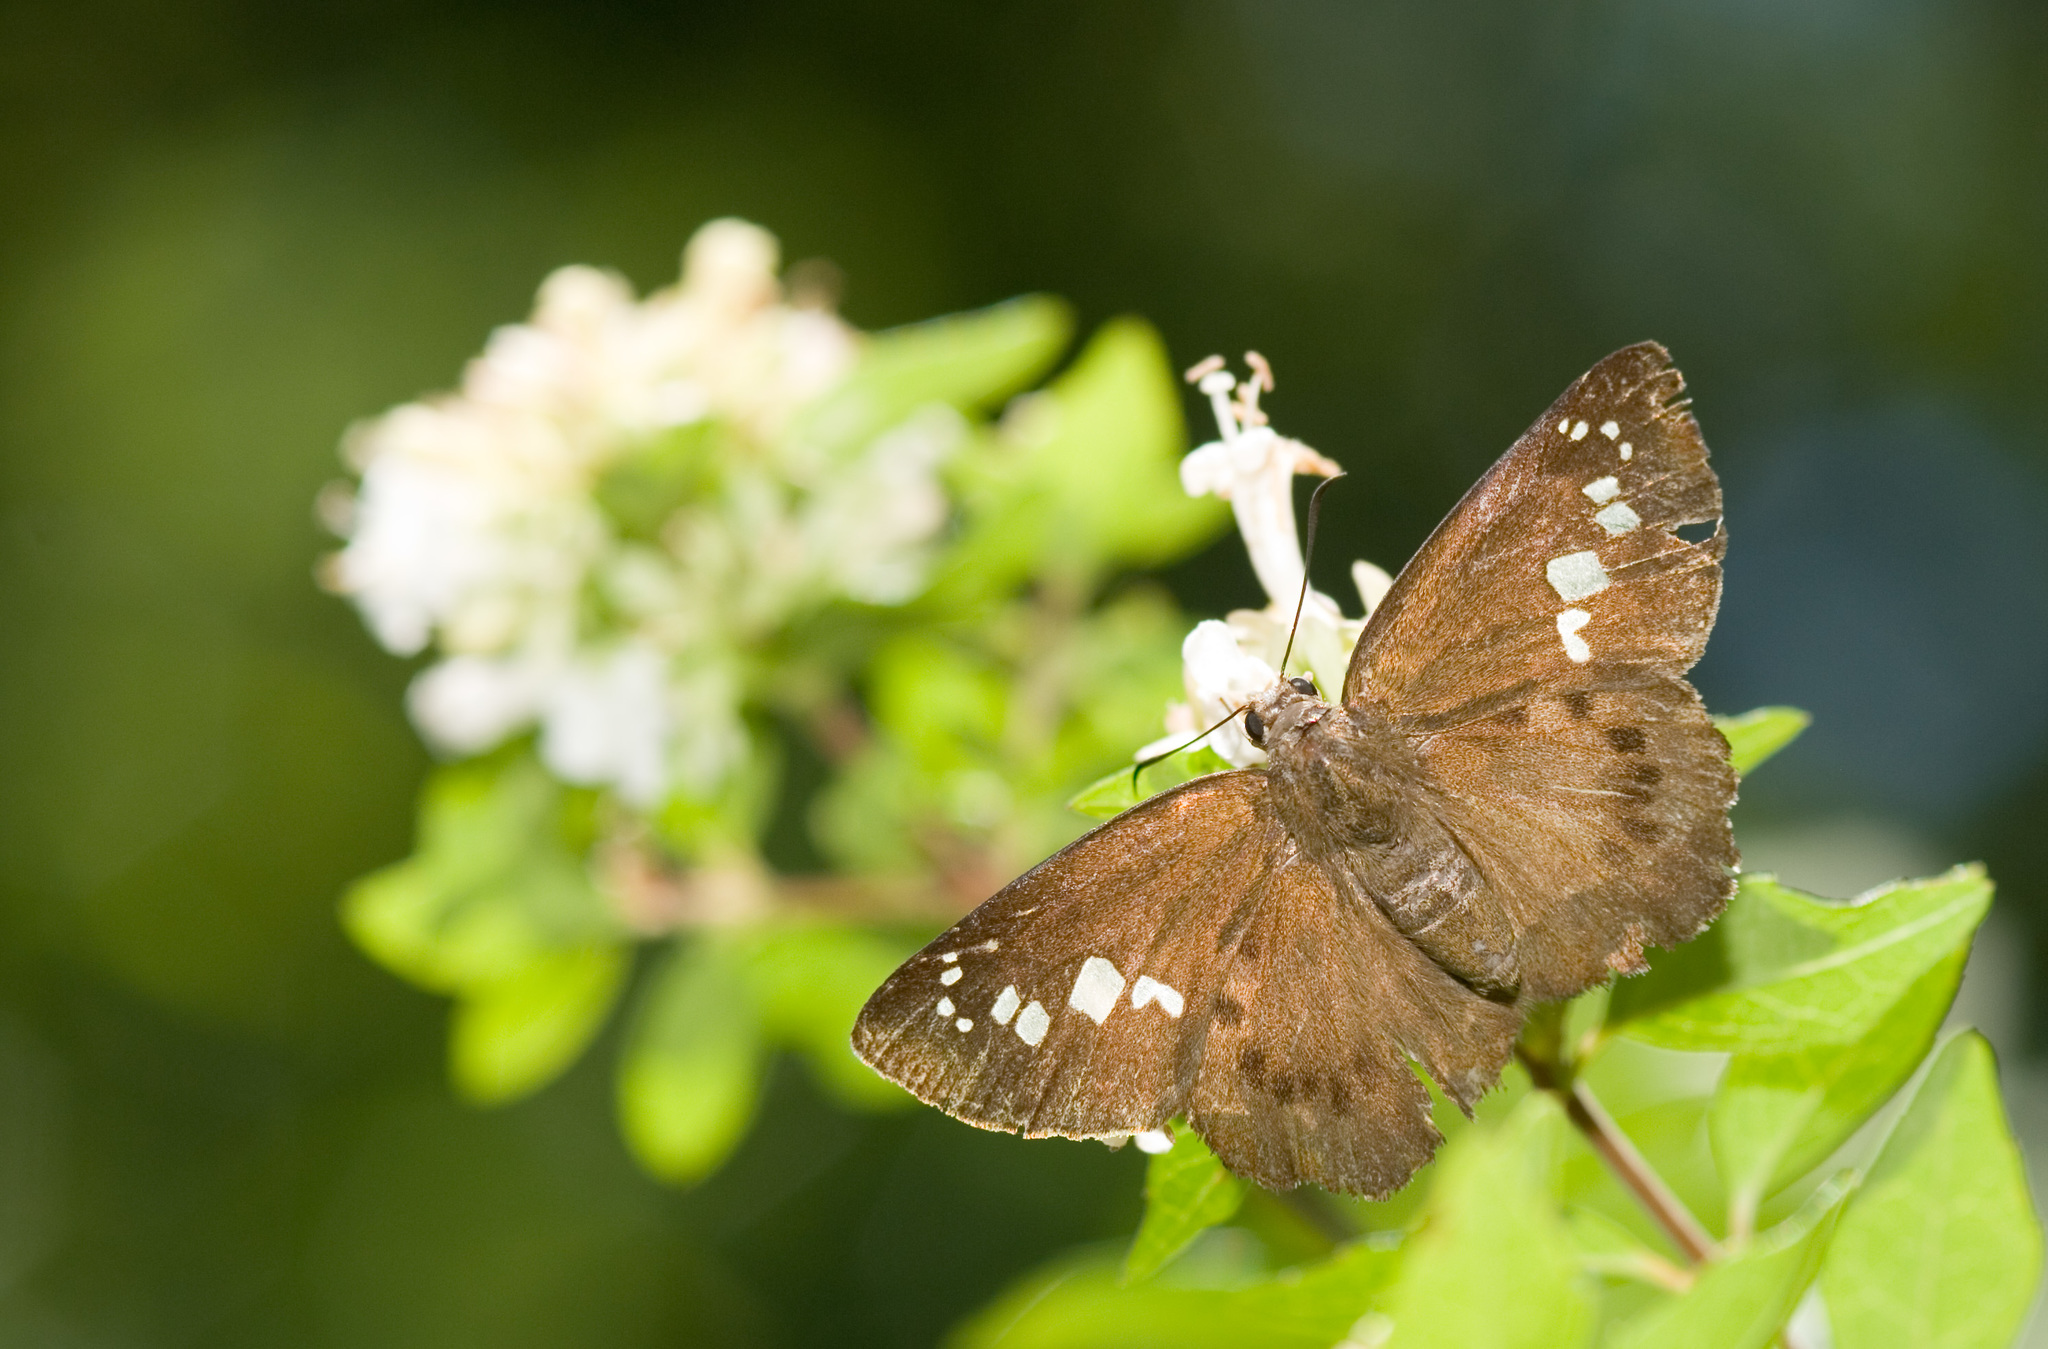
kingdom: Animalia
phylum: Arthropoda
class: Insecta
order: Lepidoptera
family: Hesperiidae
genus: Seseria
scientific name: Seseria formosana
